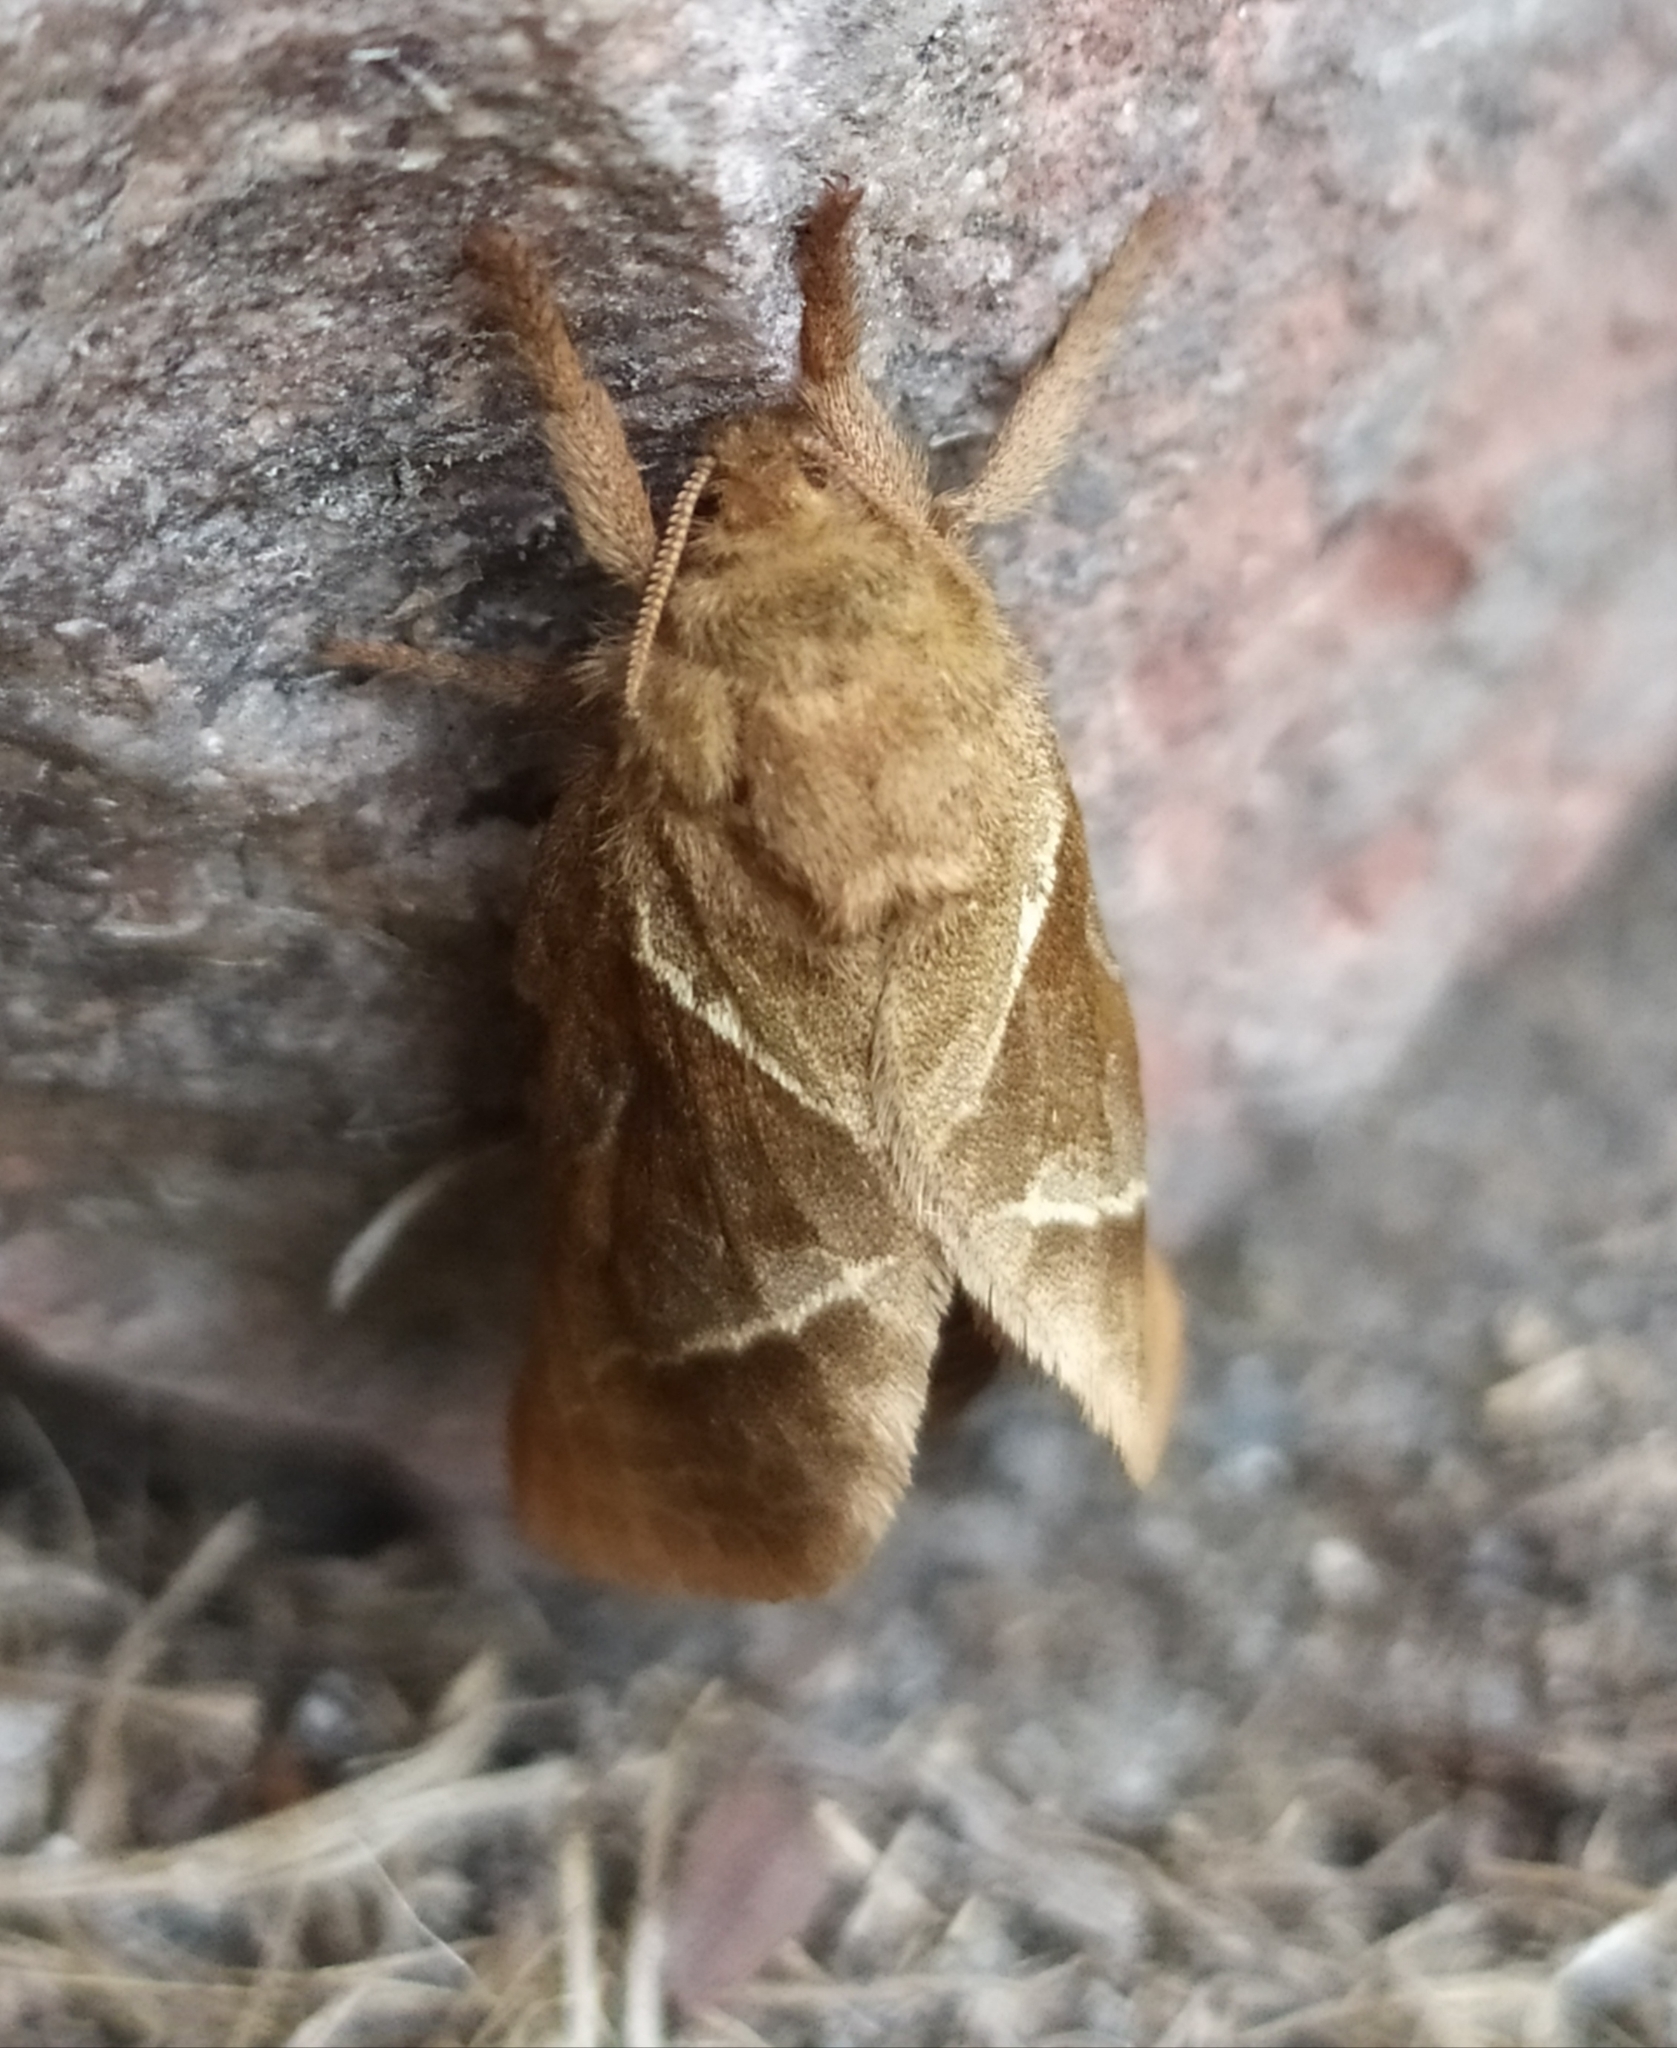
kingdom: Animalia
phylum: Arthropoda
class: Insecta
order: Lepidoptera
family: Hepialidae
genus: Triodia
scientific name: Triodia sylvina
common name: Orange swift
